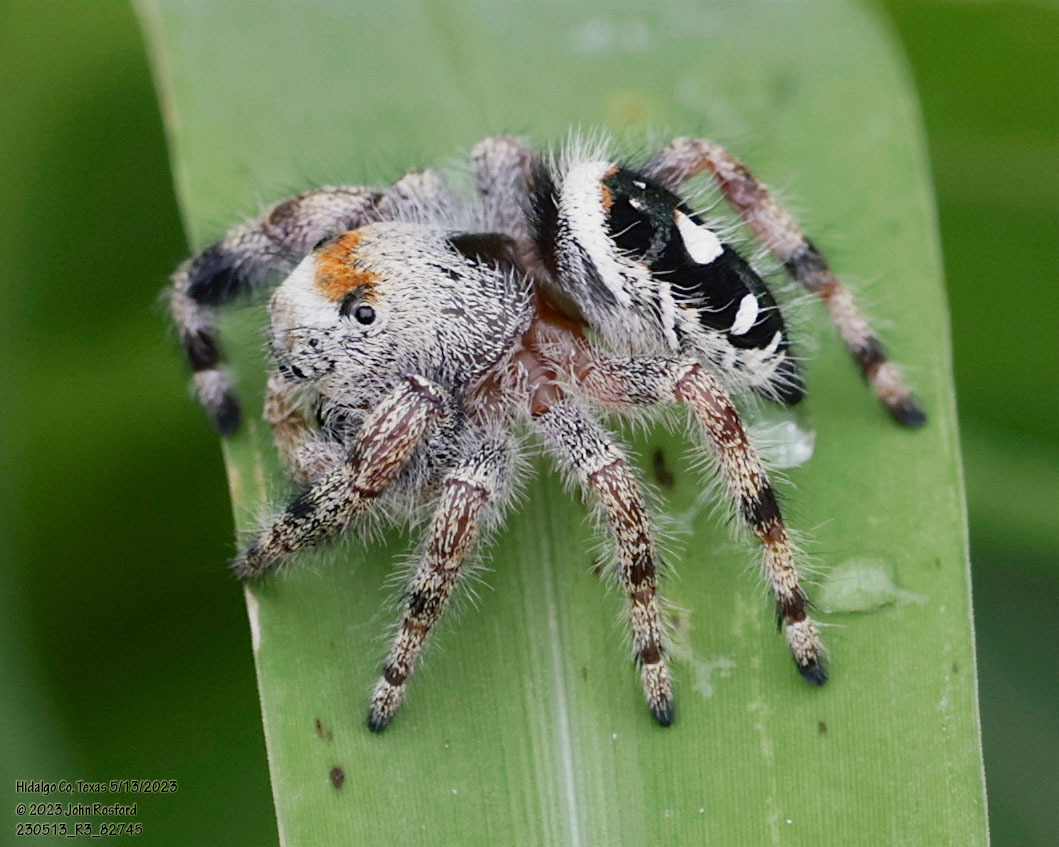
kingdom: Animalia
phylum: Arthropoda
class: Arachnida
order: Araneae
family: Salticidae
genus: Phidippus
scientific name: Phidippus audax
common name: Bold jumper
